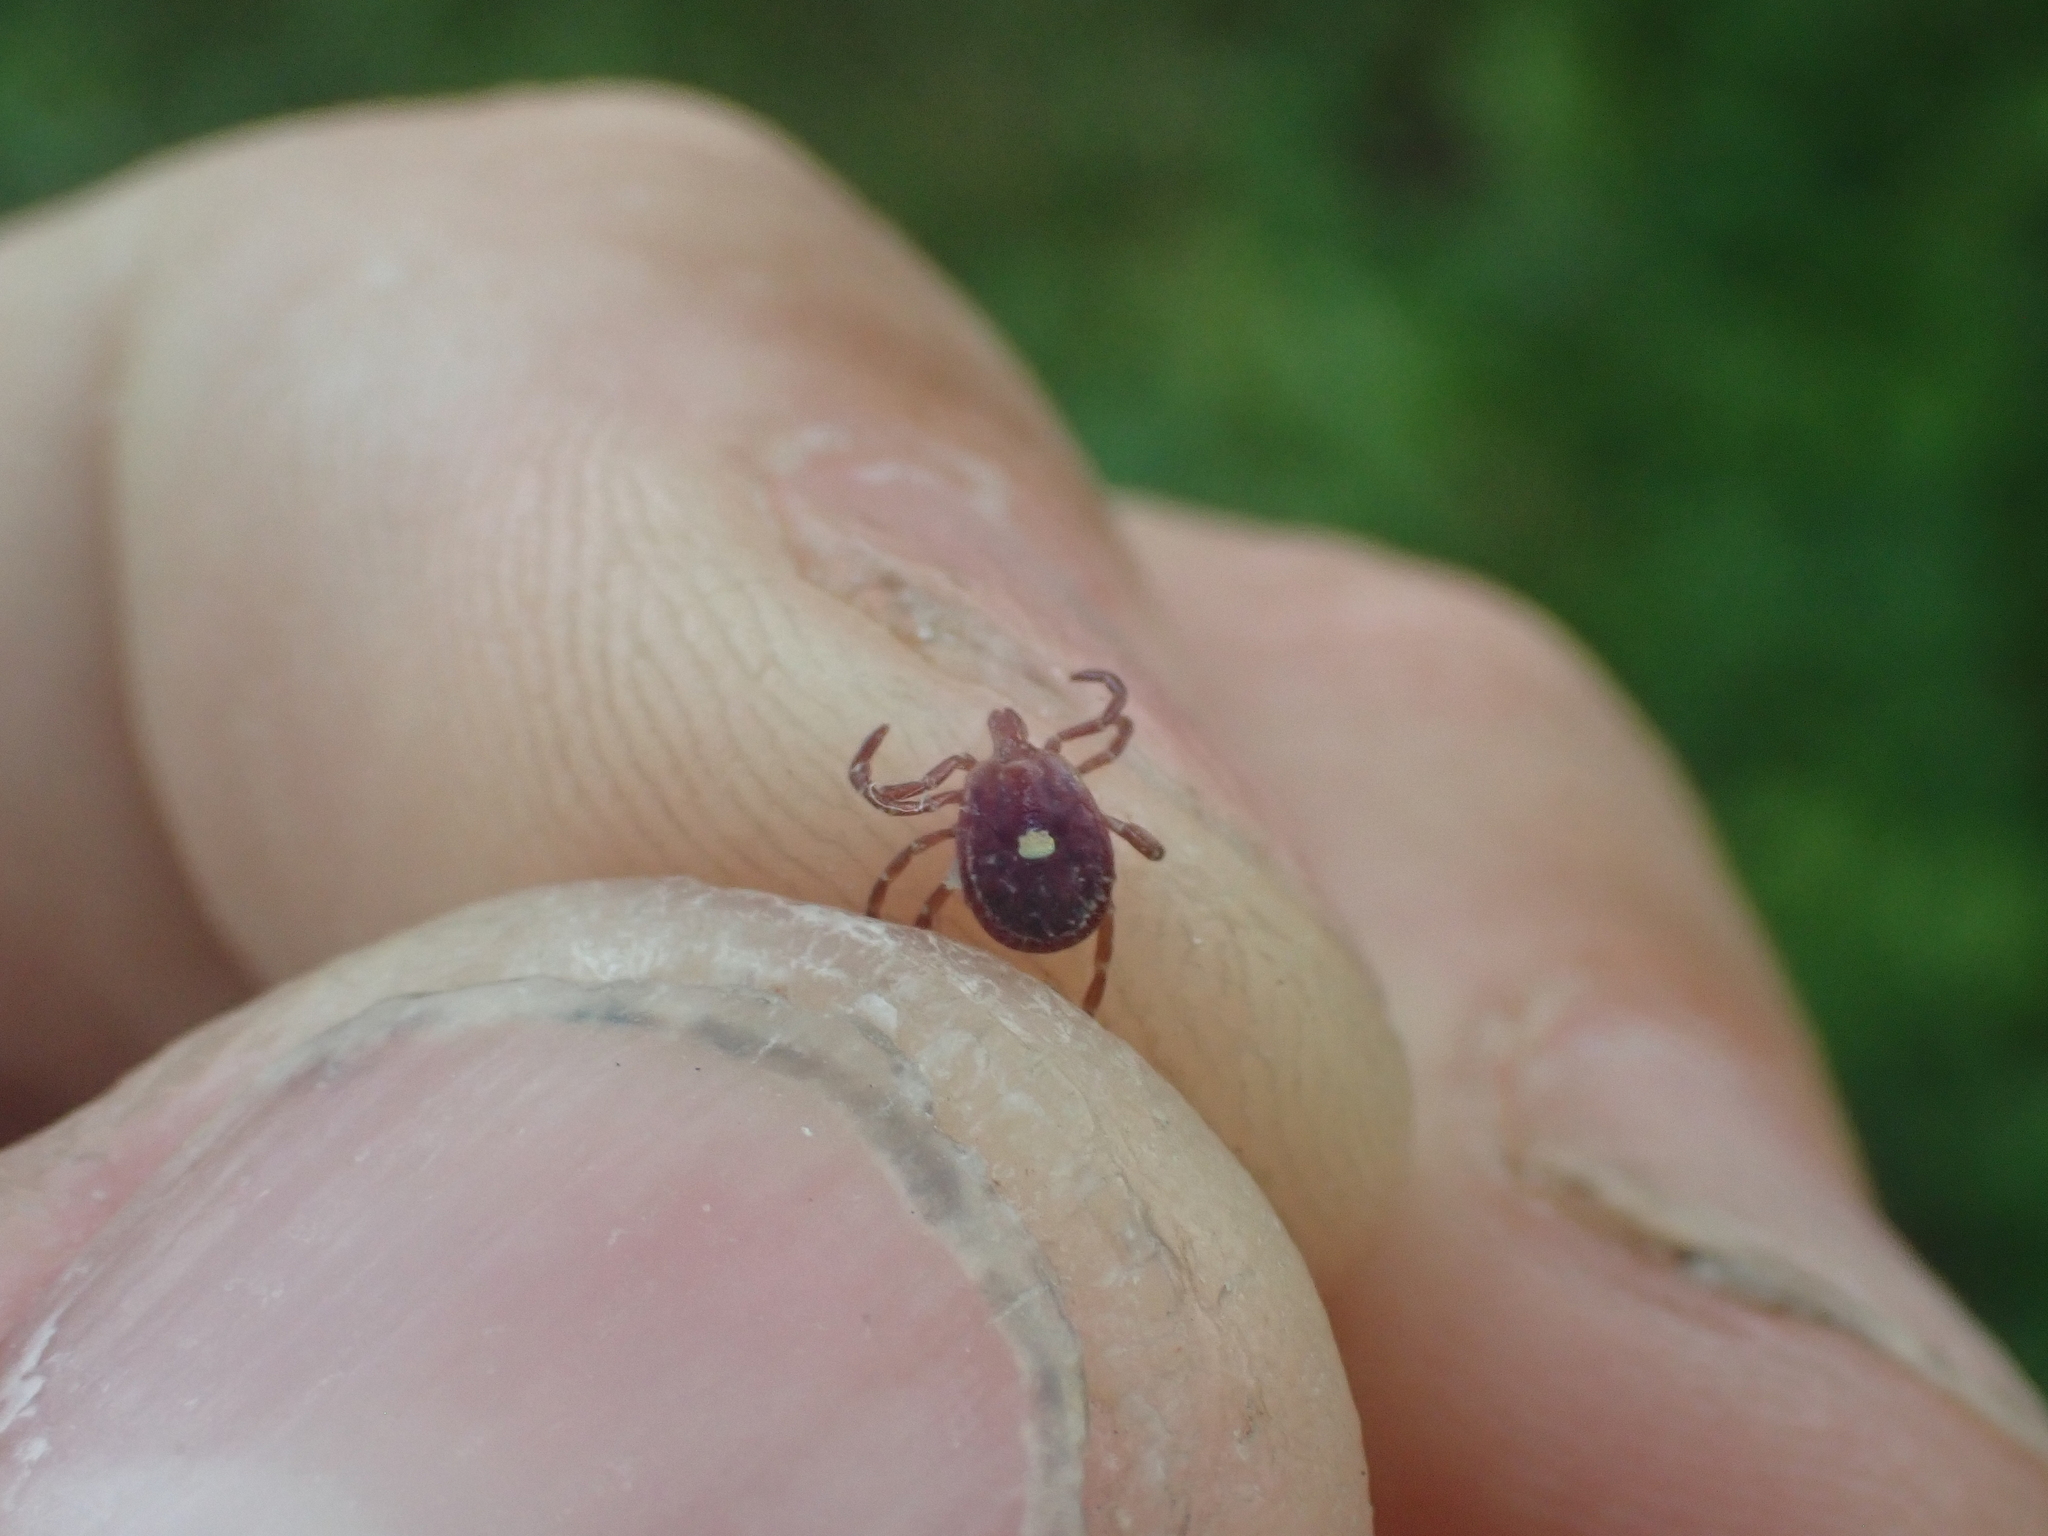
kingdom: Animalia
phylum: Arthropoda
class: Arachnida
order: Ixodida
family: Ixodidae
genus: Amblyomma
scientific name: Amblyomma americanum
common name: Lone star tick
